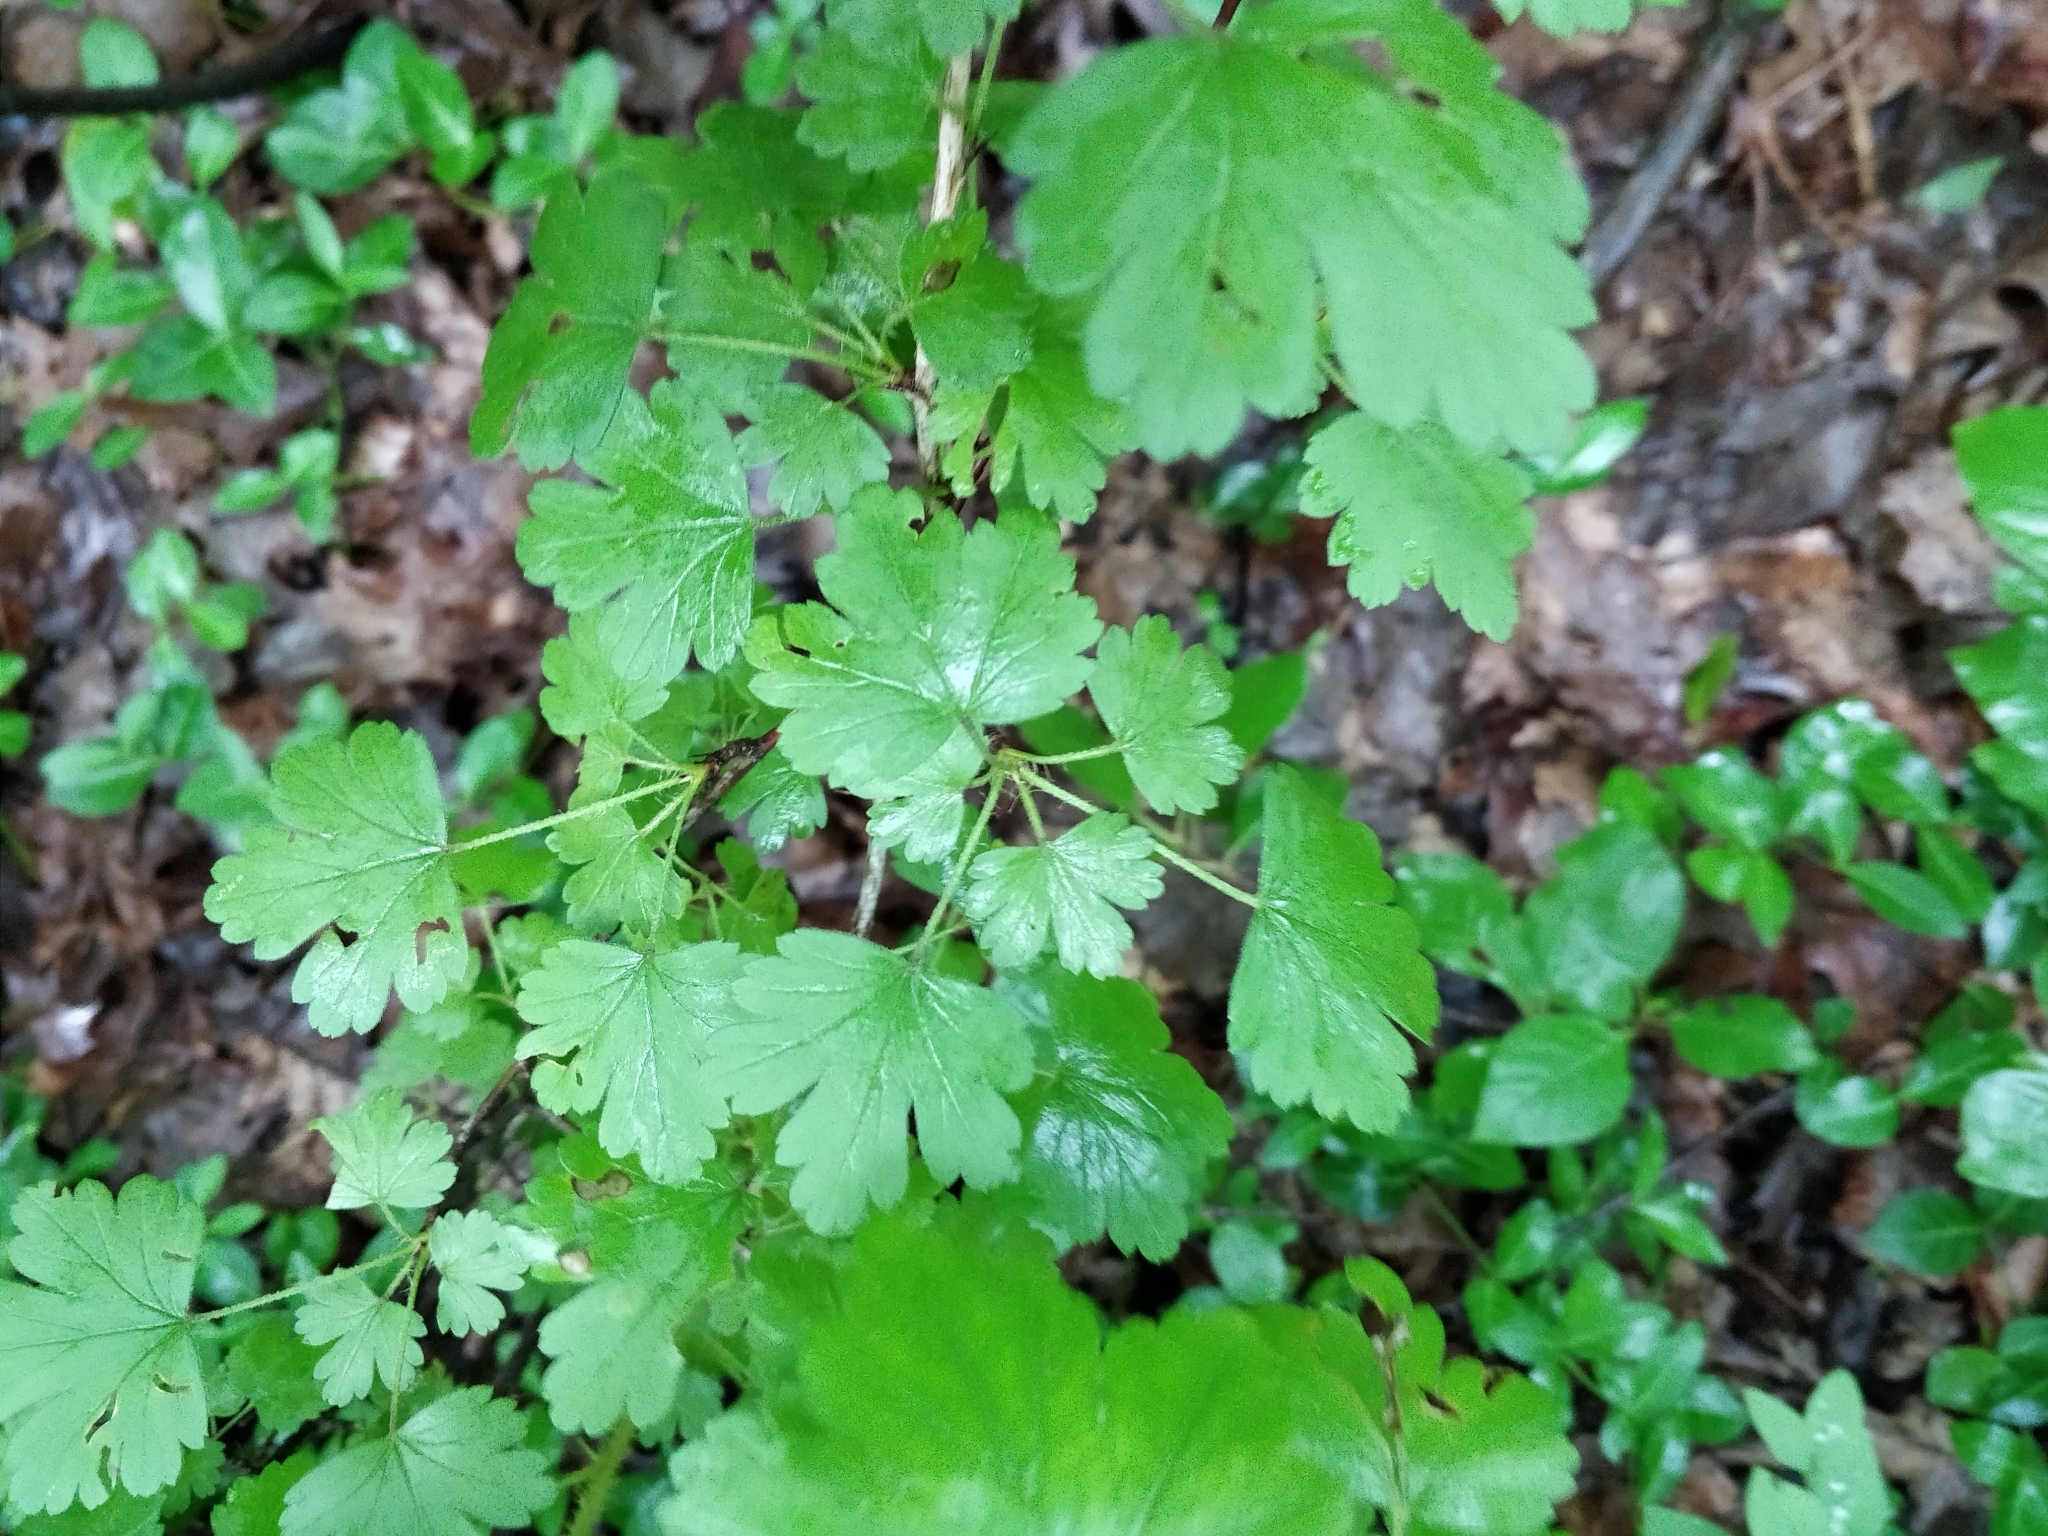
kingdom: Plantae
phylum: Tracheophyta
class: Magnoliopsida
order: Saxifragales
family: Grossulariaceae
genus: Ribes
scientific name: Ribes missouriense
